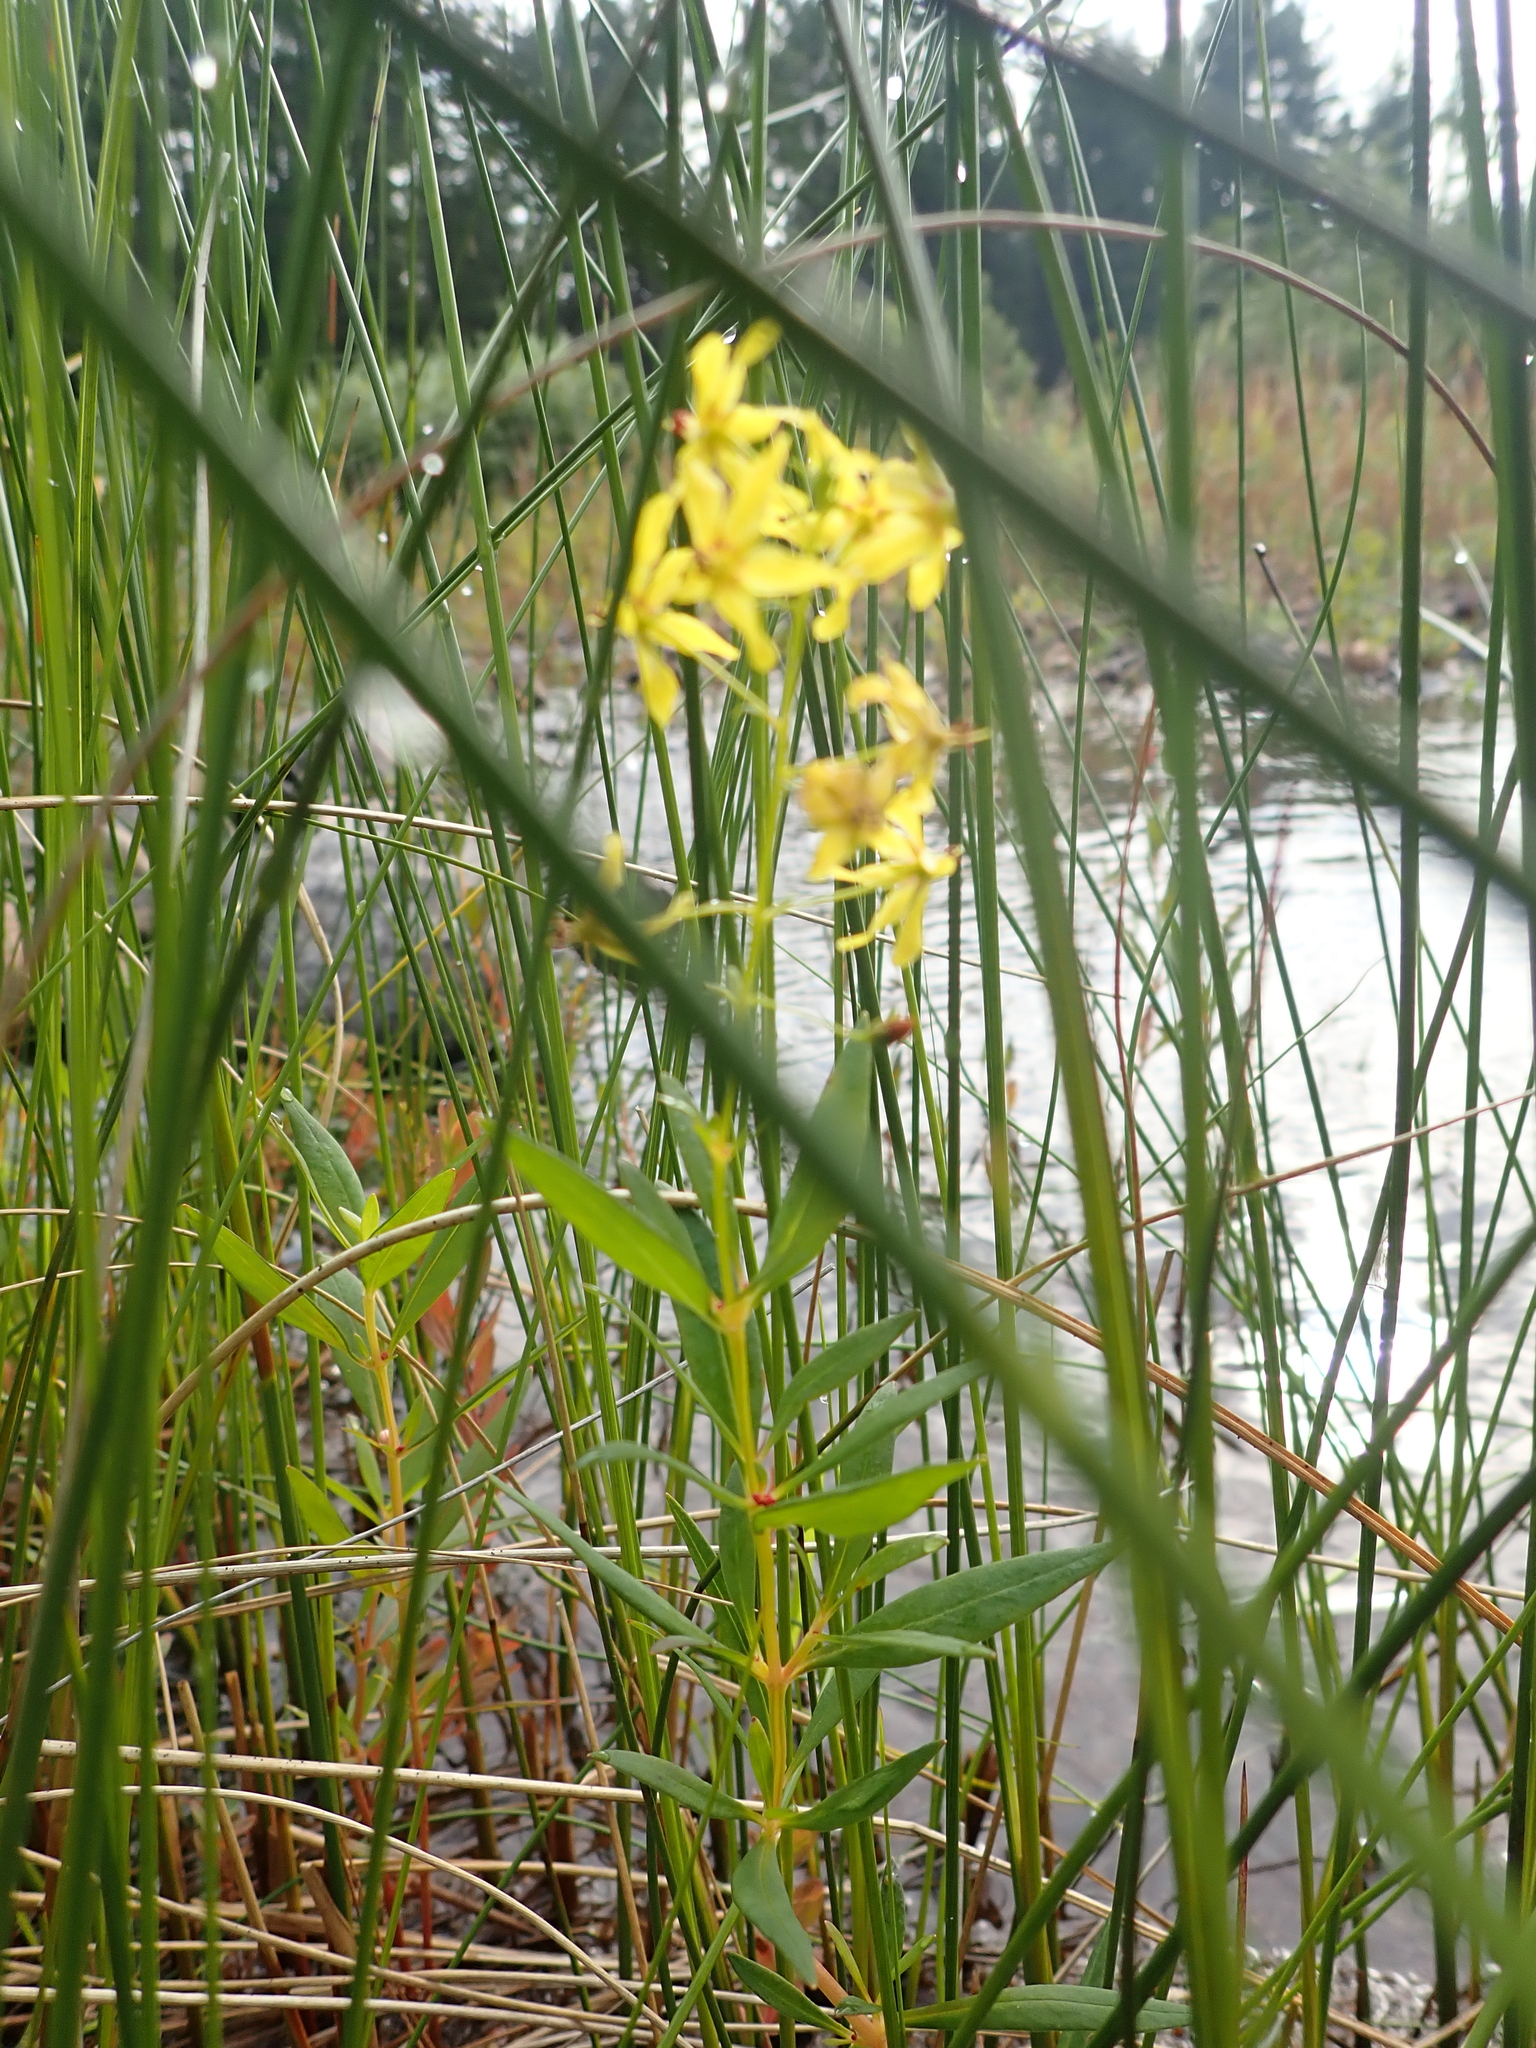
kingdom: Plantae
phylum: Tracheophyta
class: Magnoliopsida
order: Ericales
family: Primulaceae
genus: Lysimachia
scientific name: Lysimachia terrestris
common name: Lake loosestrife
